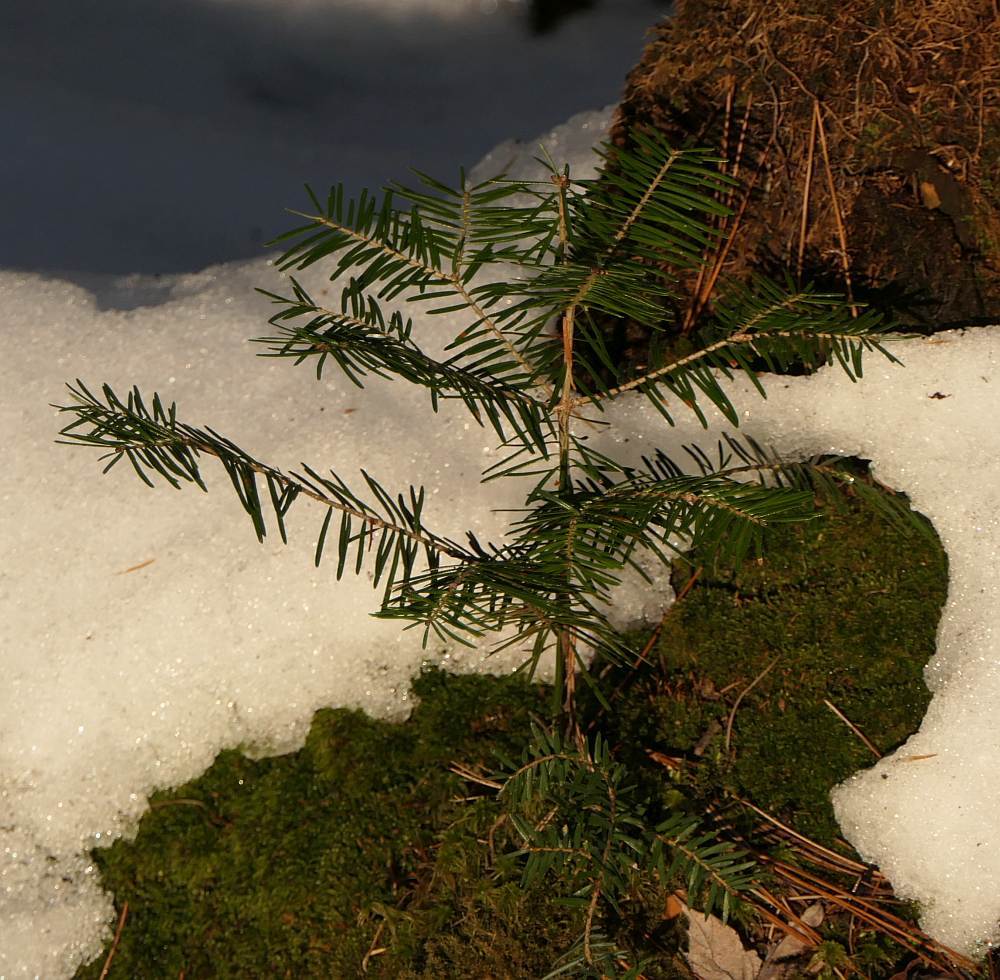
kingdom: Plantae
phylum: Tracheophyta
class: Pinopsida
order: Pinales
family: Pinaceae
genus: Abies
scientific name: Abies balsamea
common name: Balsam fir
